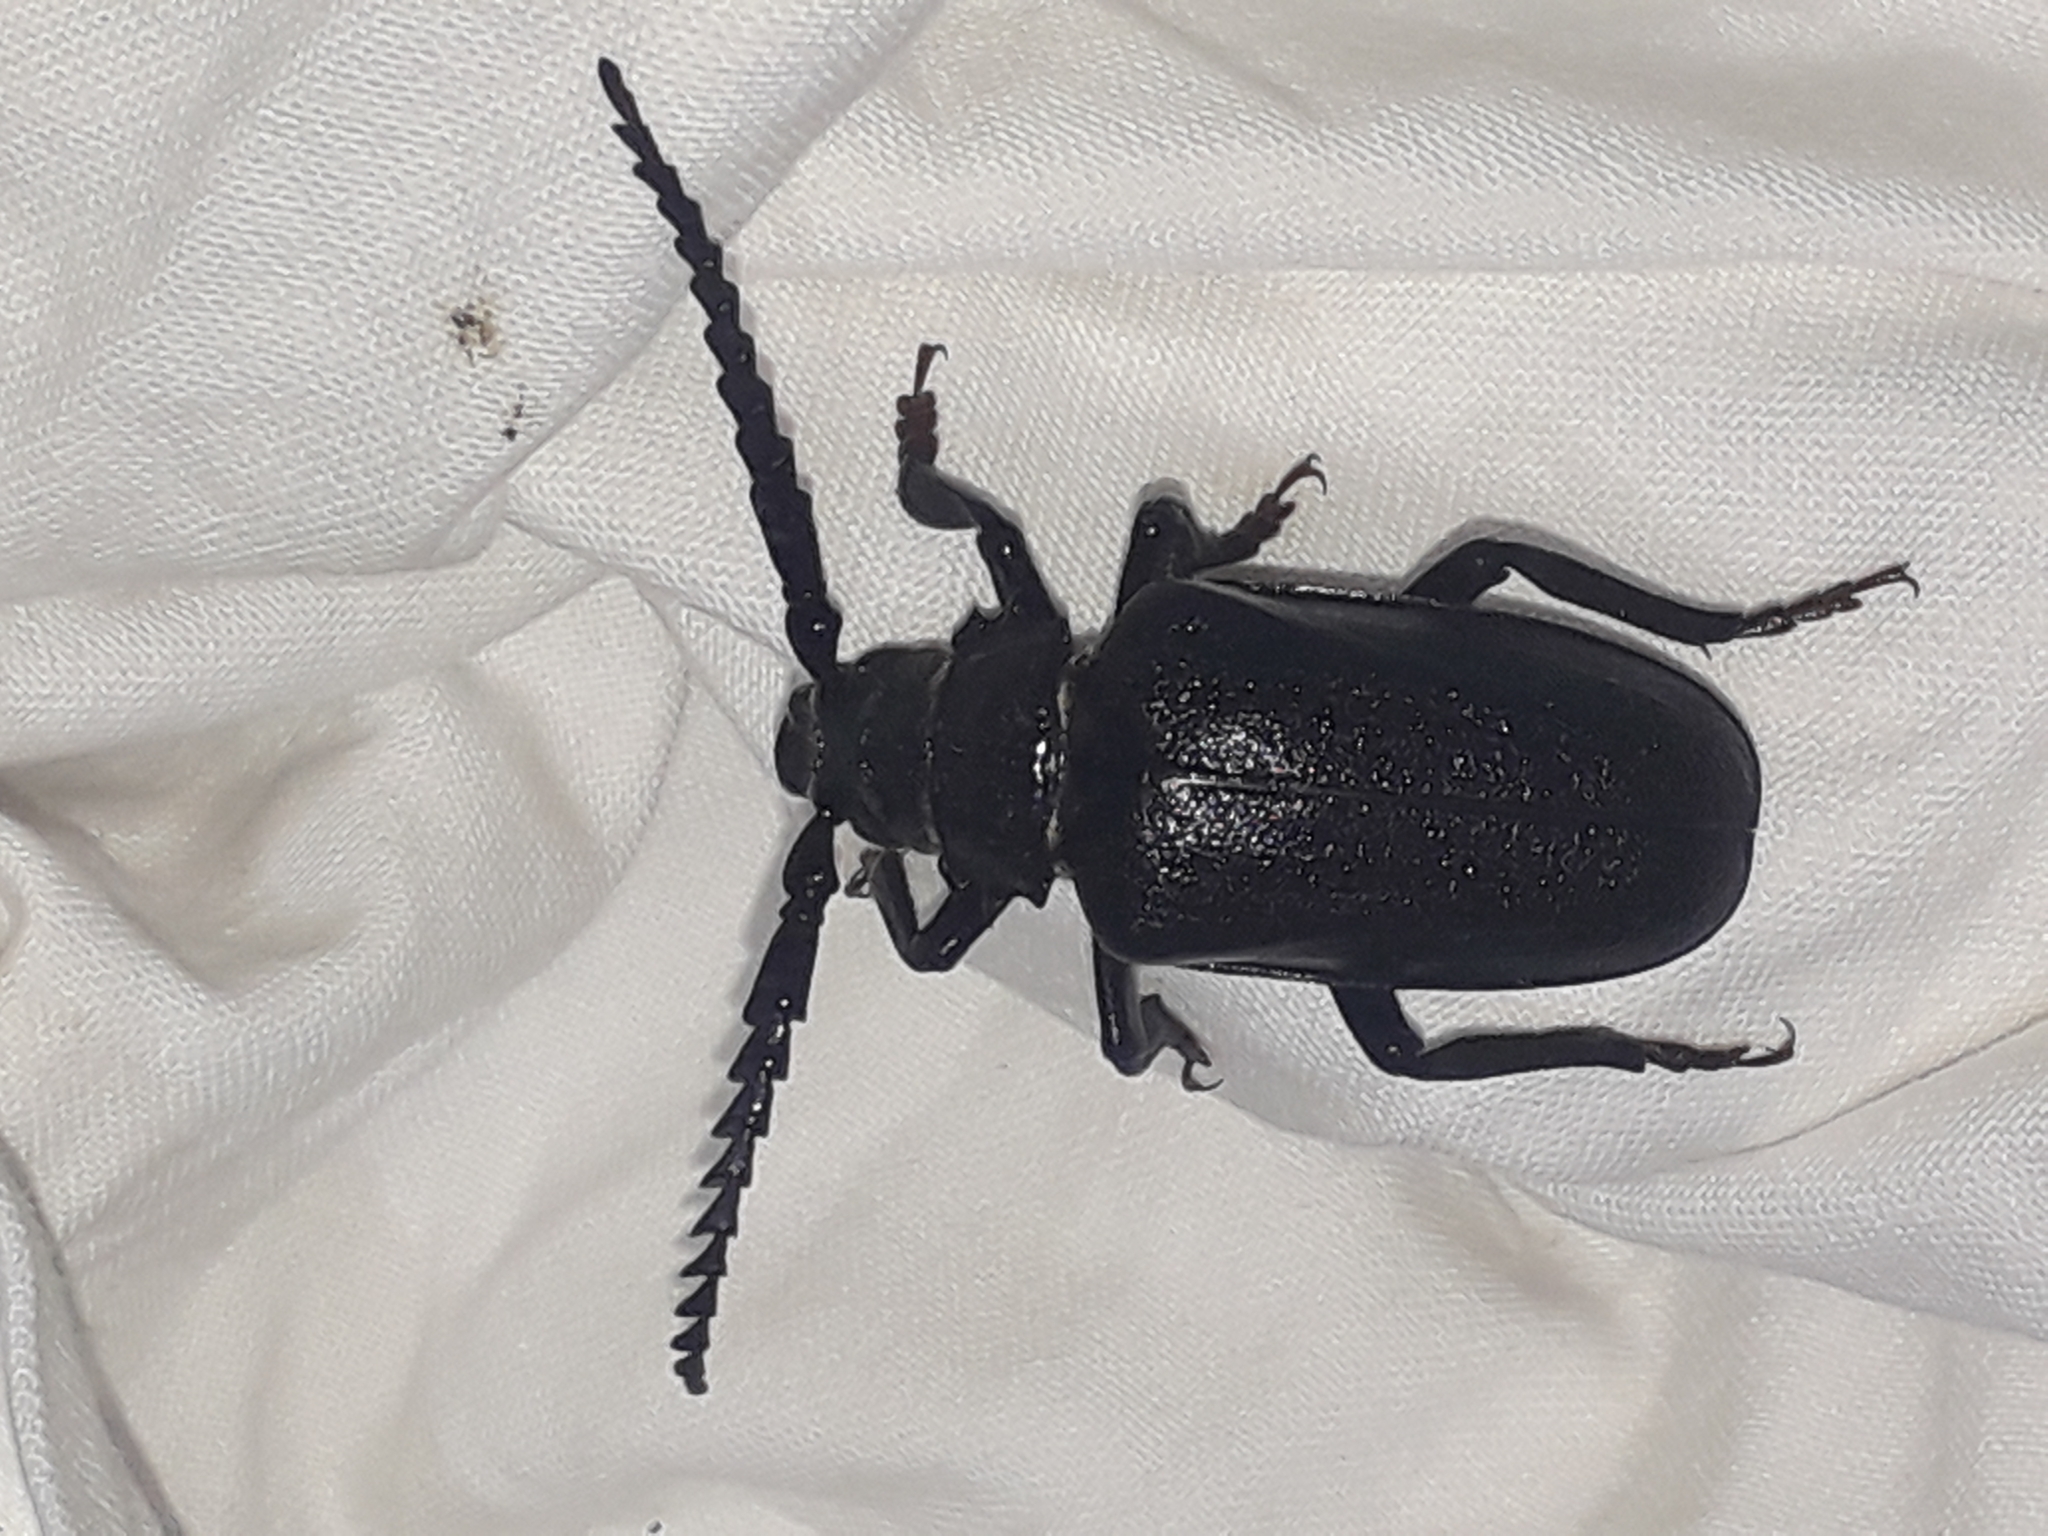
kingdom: Animalia
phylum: Arthropoda
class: Insecta
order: Coleoptera
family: Cerambycidae
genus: Prionus
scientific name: Prionus coriarius
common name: Tanner beetle
